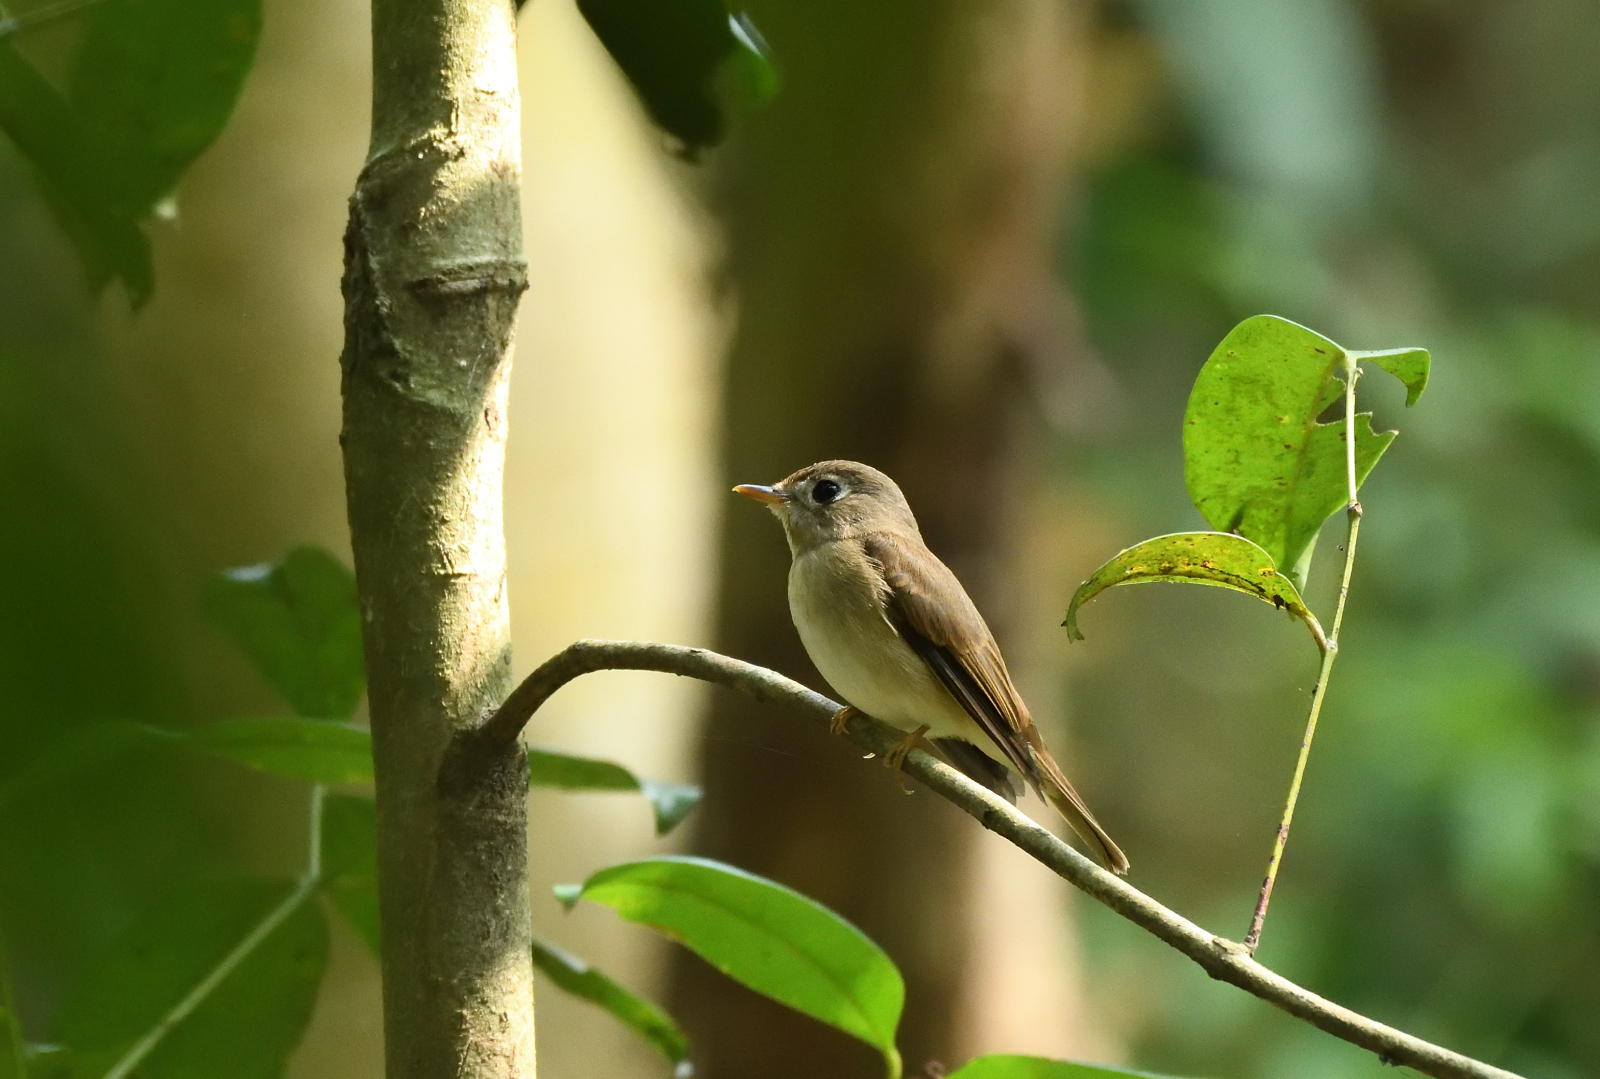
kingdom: Animalia
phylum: Chordata
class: Aves
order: Passeriformes
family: Muscicapidae
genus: Muscicapa
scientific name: Muscicapa muttui
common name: Brown-breasted flycatcher
